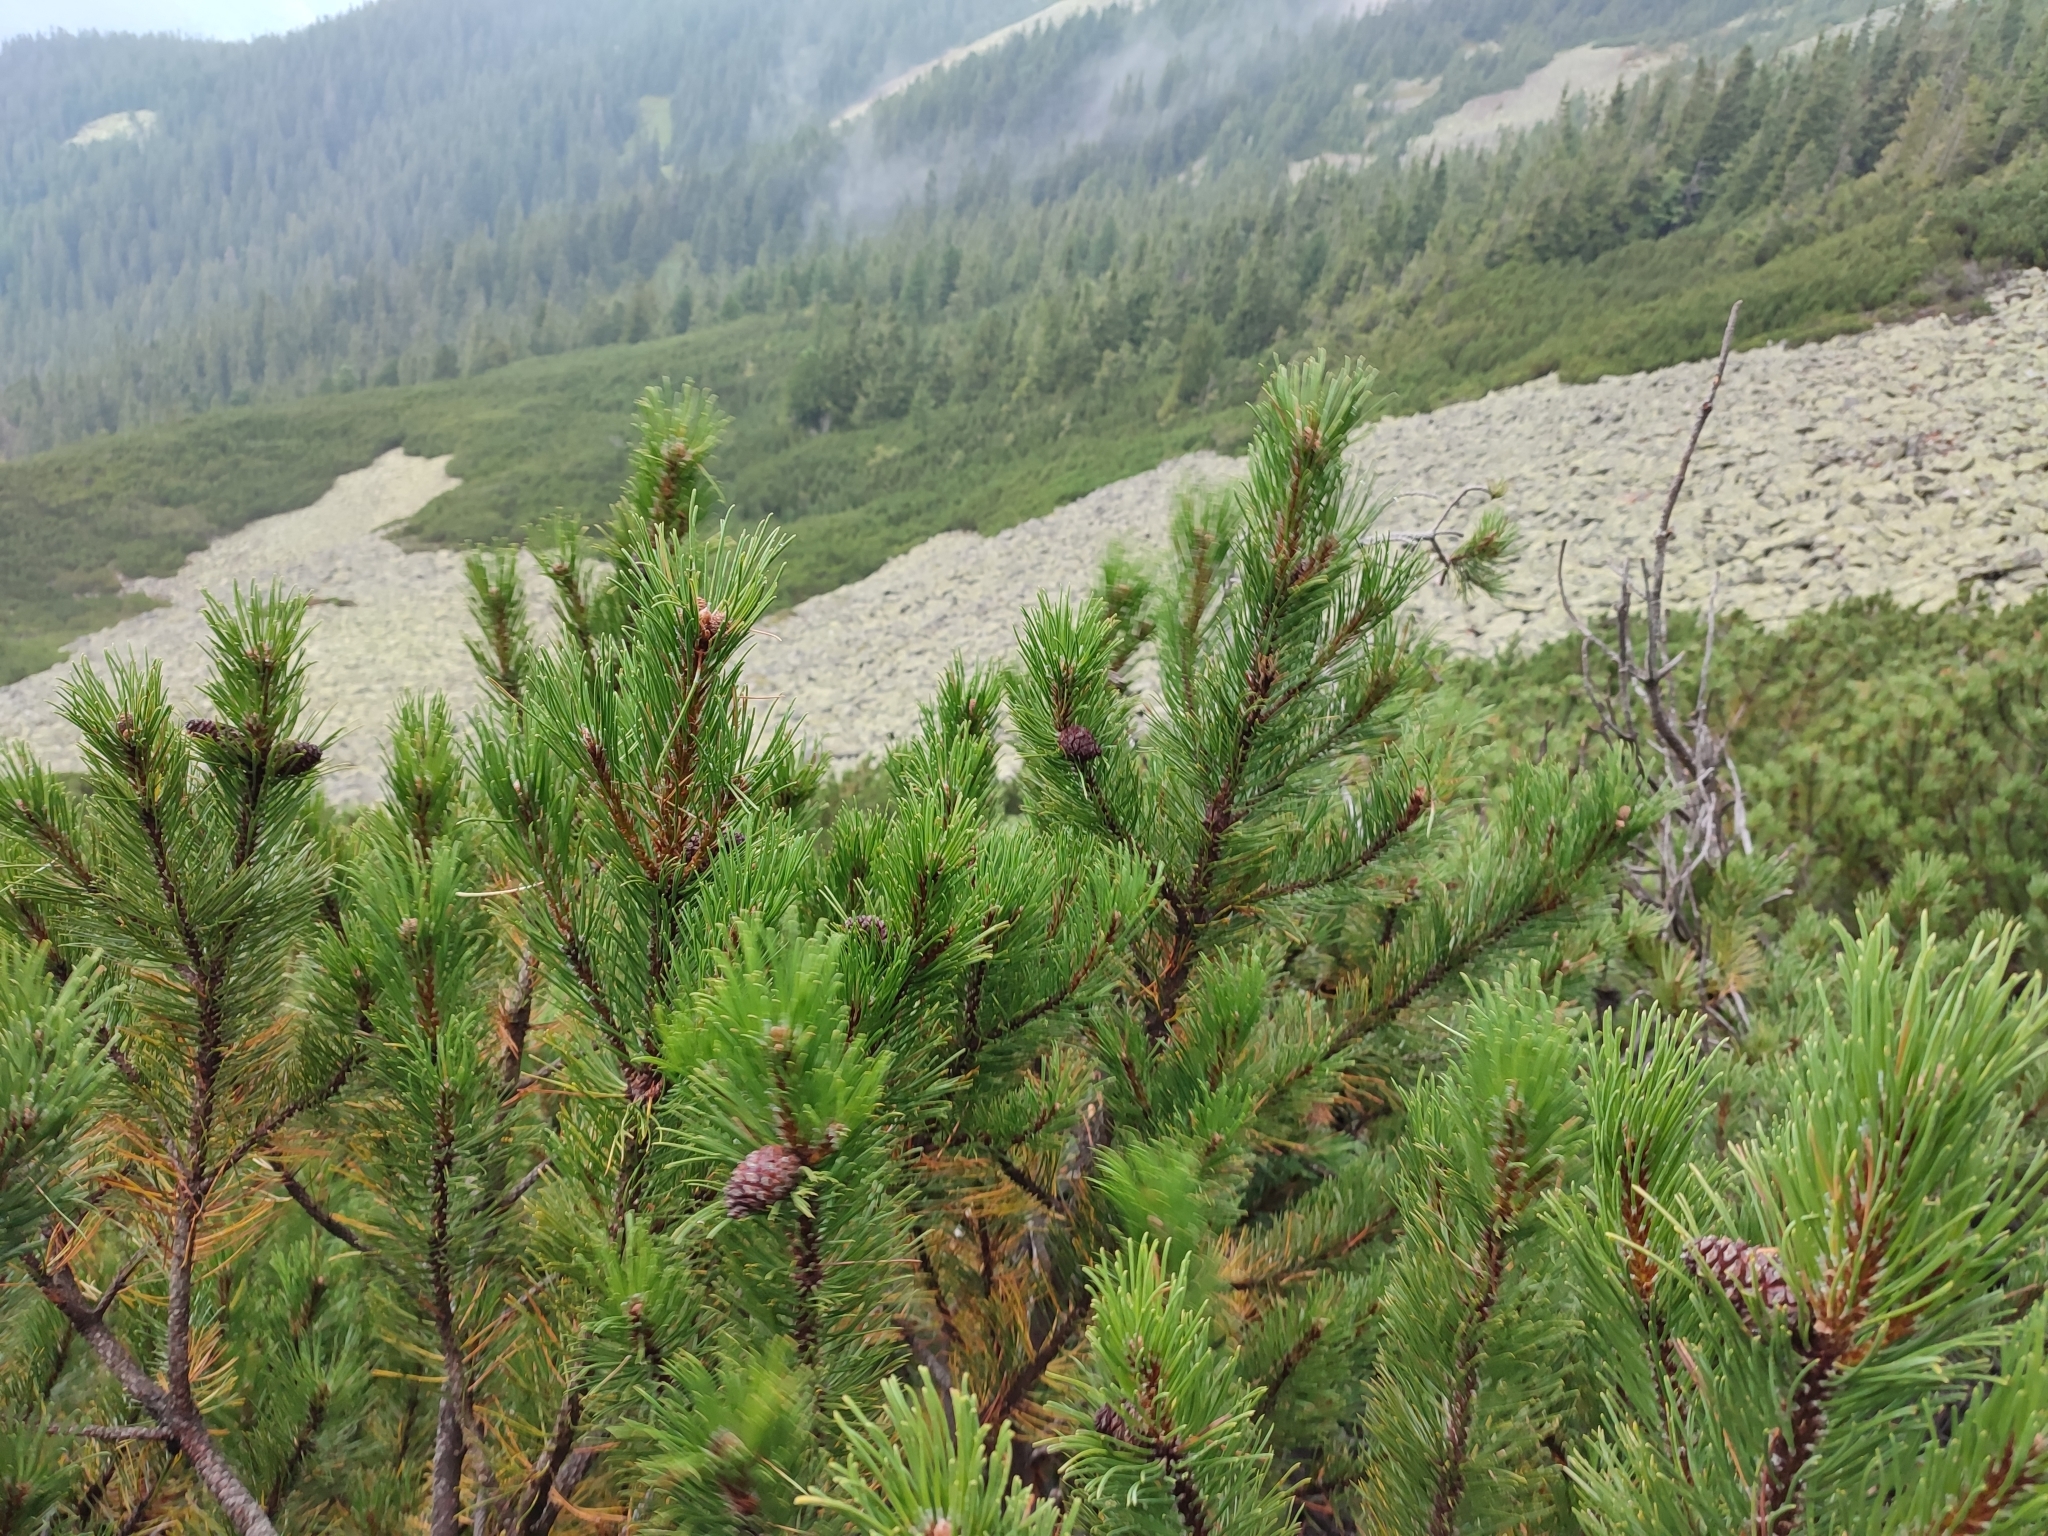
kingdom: Plantae
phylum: Tracheophyta
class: Pinopsida
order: Pinales
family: Pinaceae
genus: Pinus
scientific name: Pinus mugo
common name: Mugo pine
